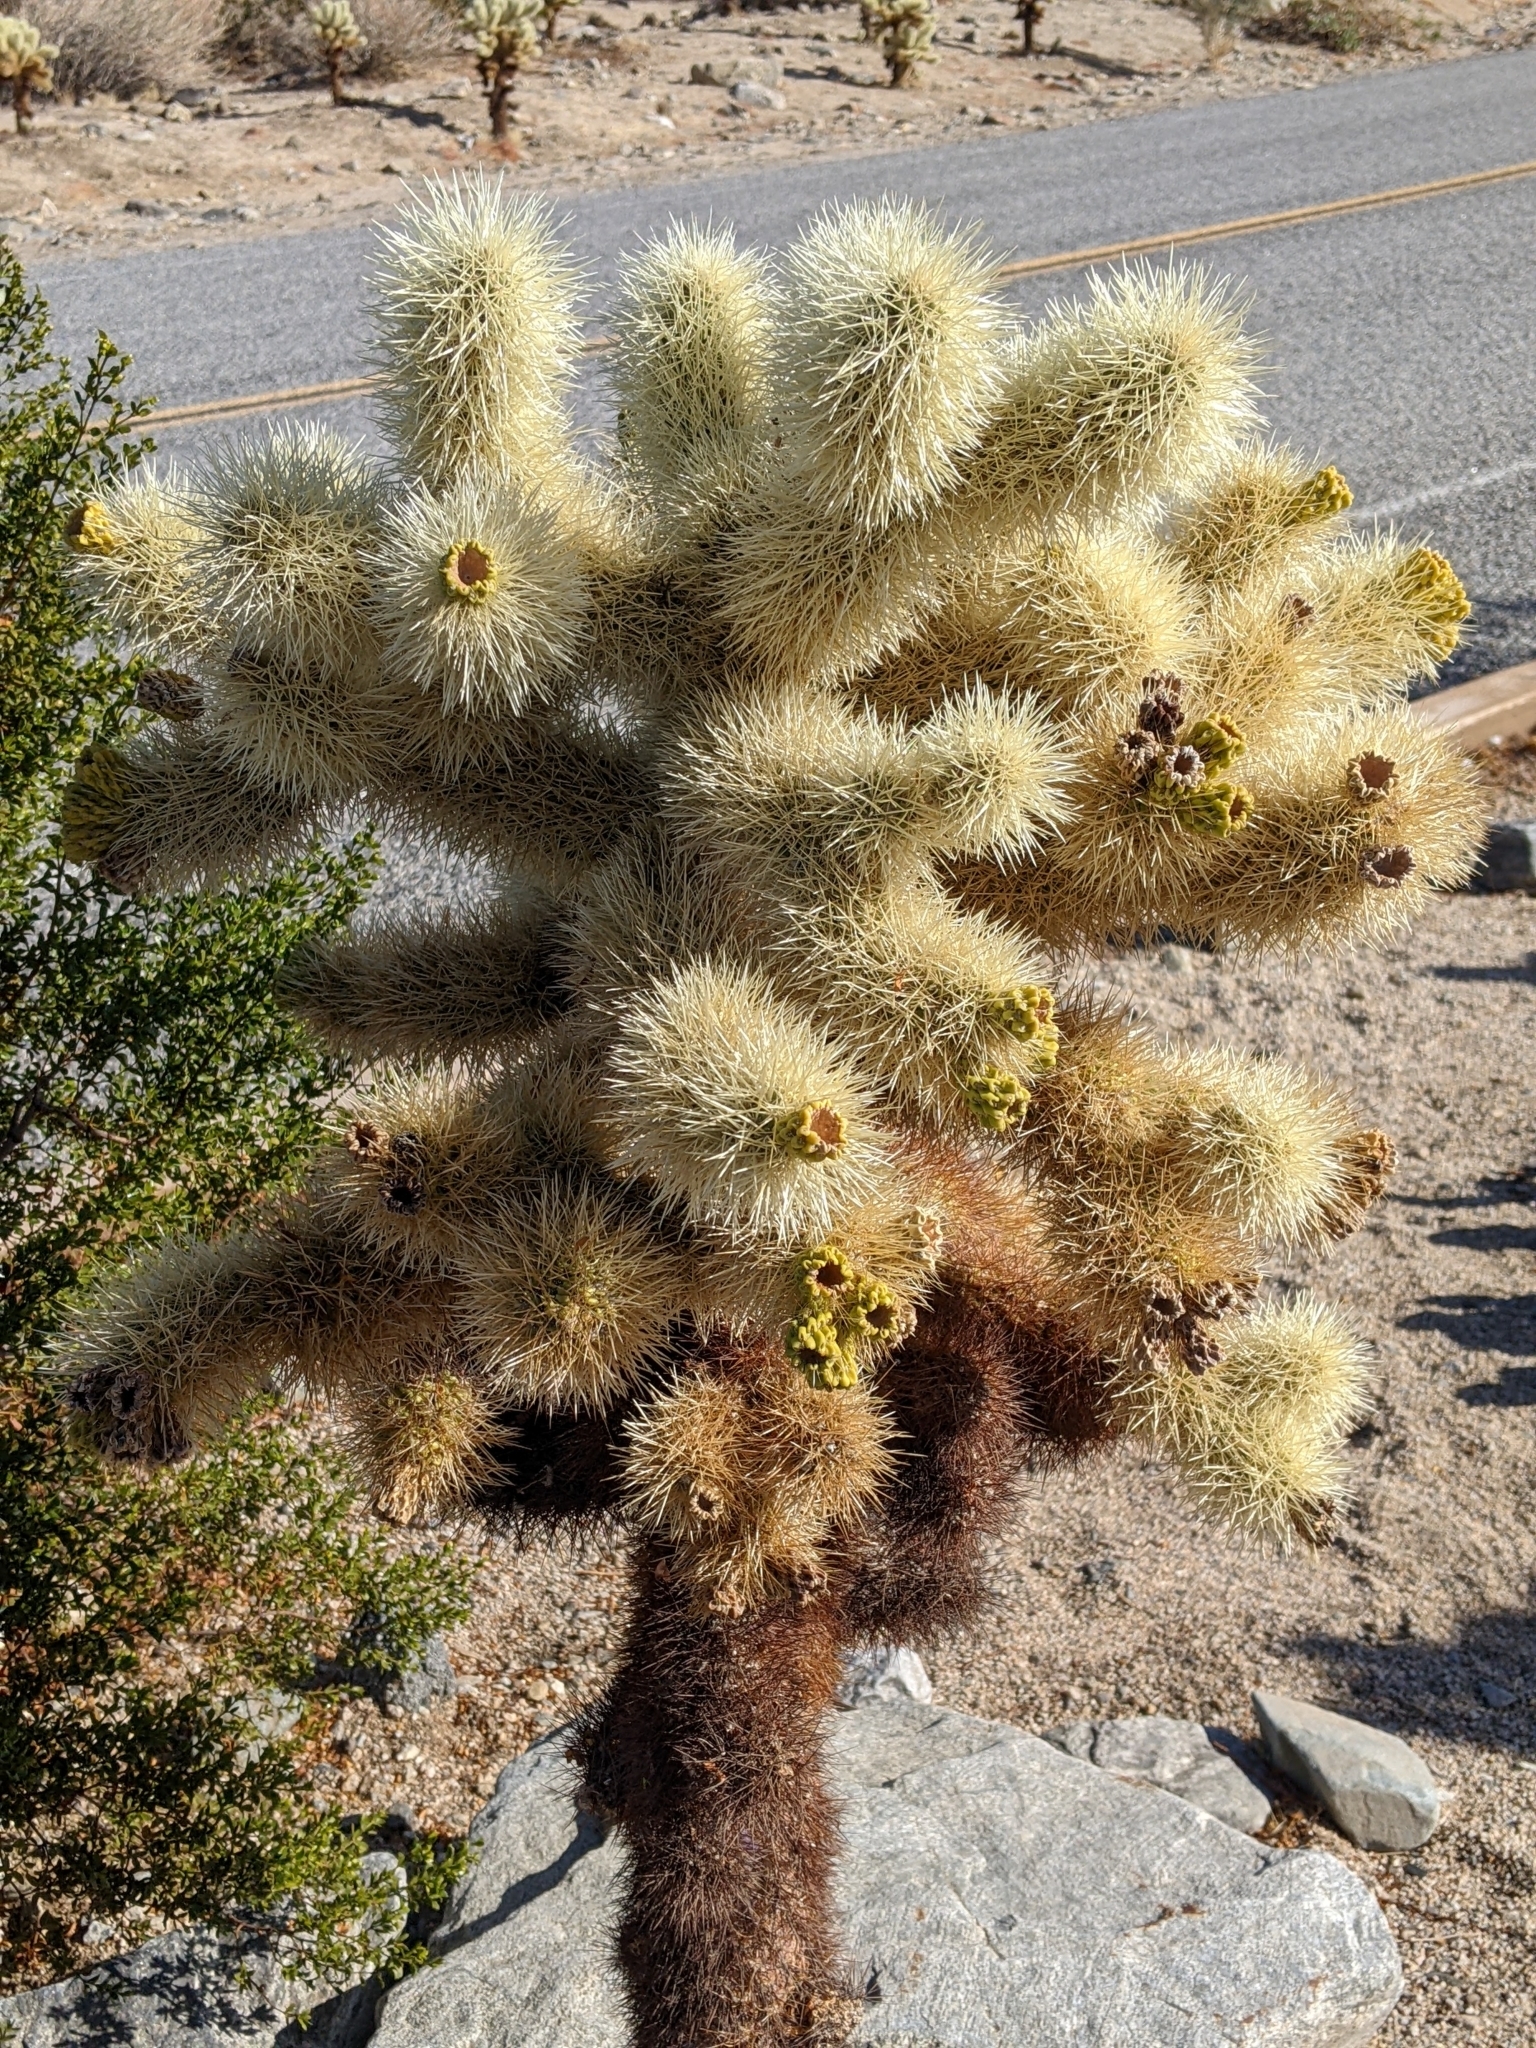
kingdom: Plantae
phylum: Tracheophyta
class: Magnoliopsida
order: Caryophyllales
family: Cactaceae
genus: Cylindropuntia
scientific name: Cylindropuntia fosbergii
